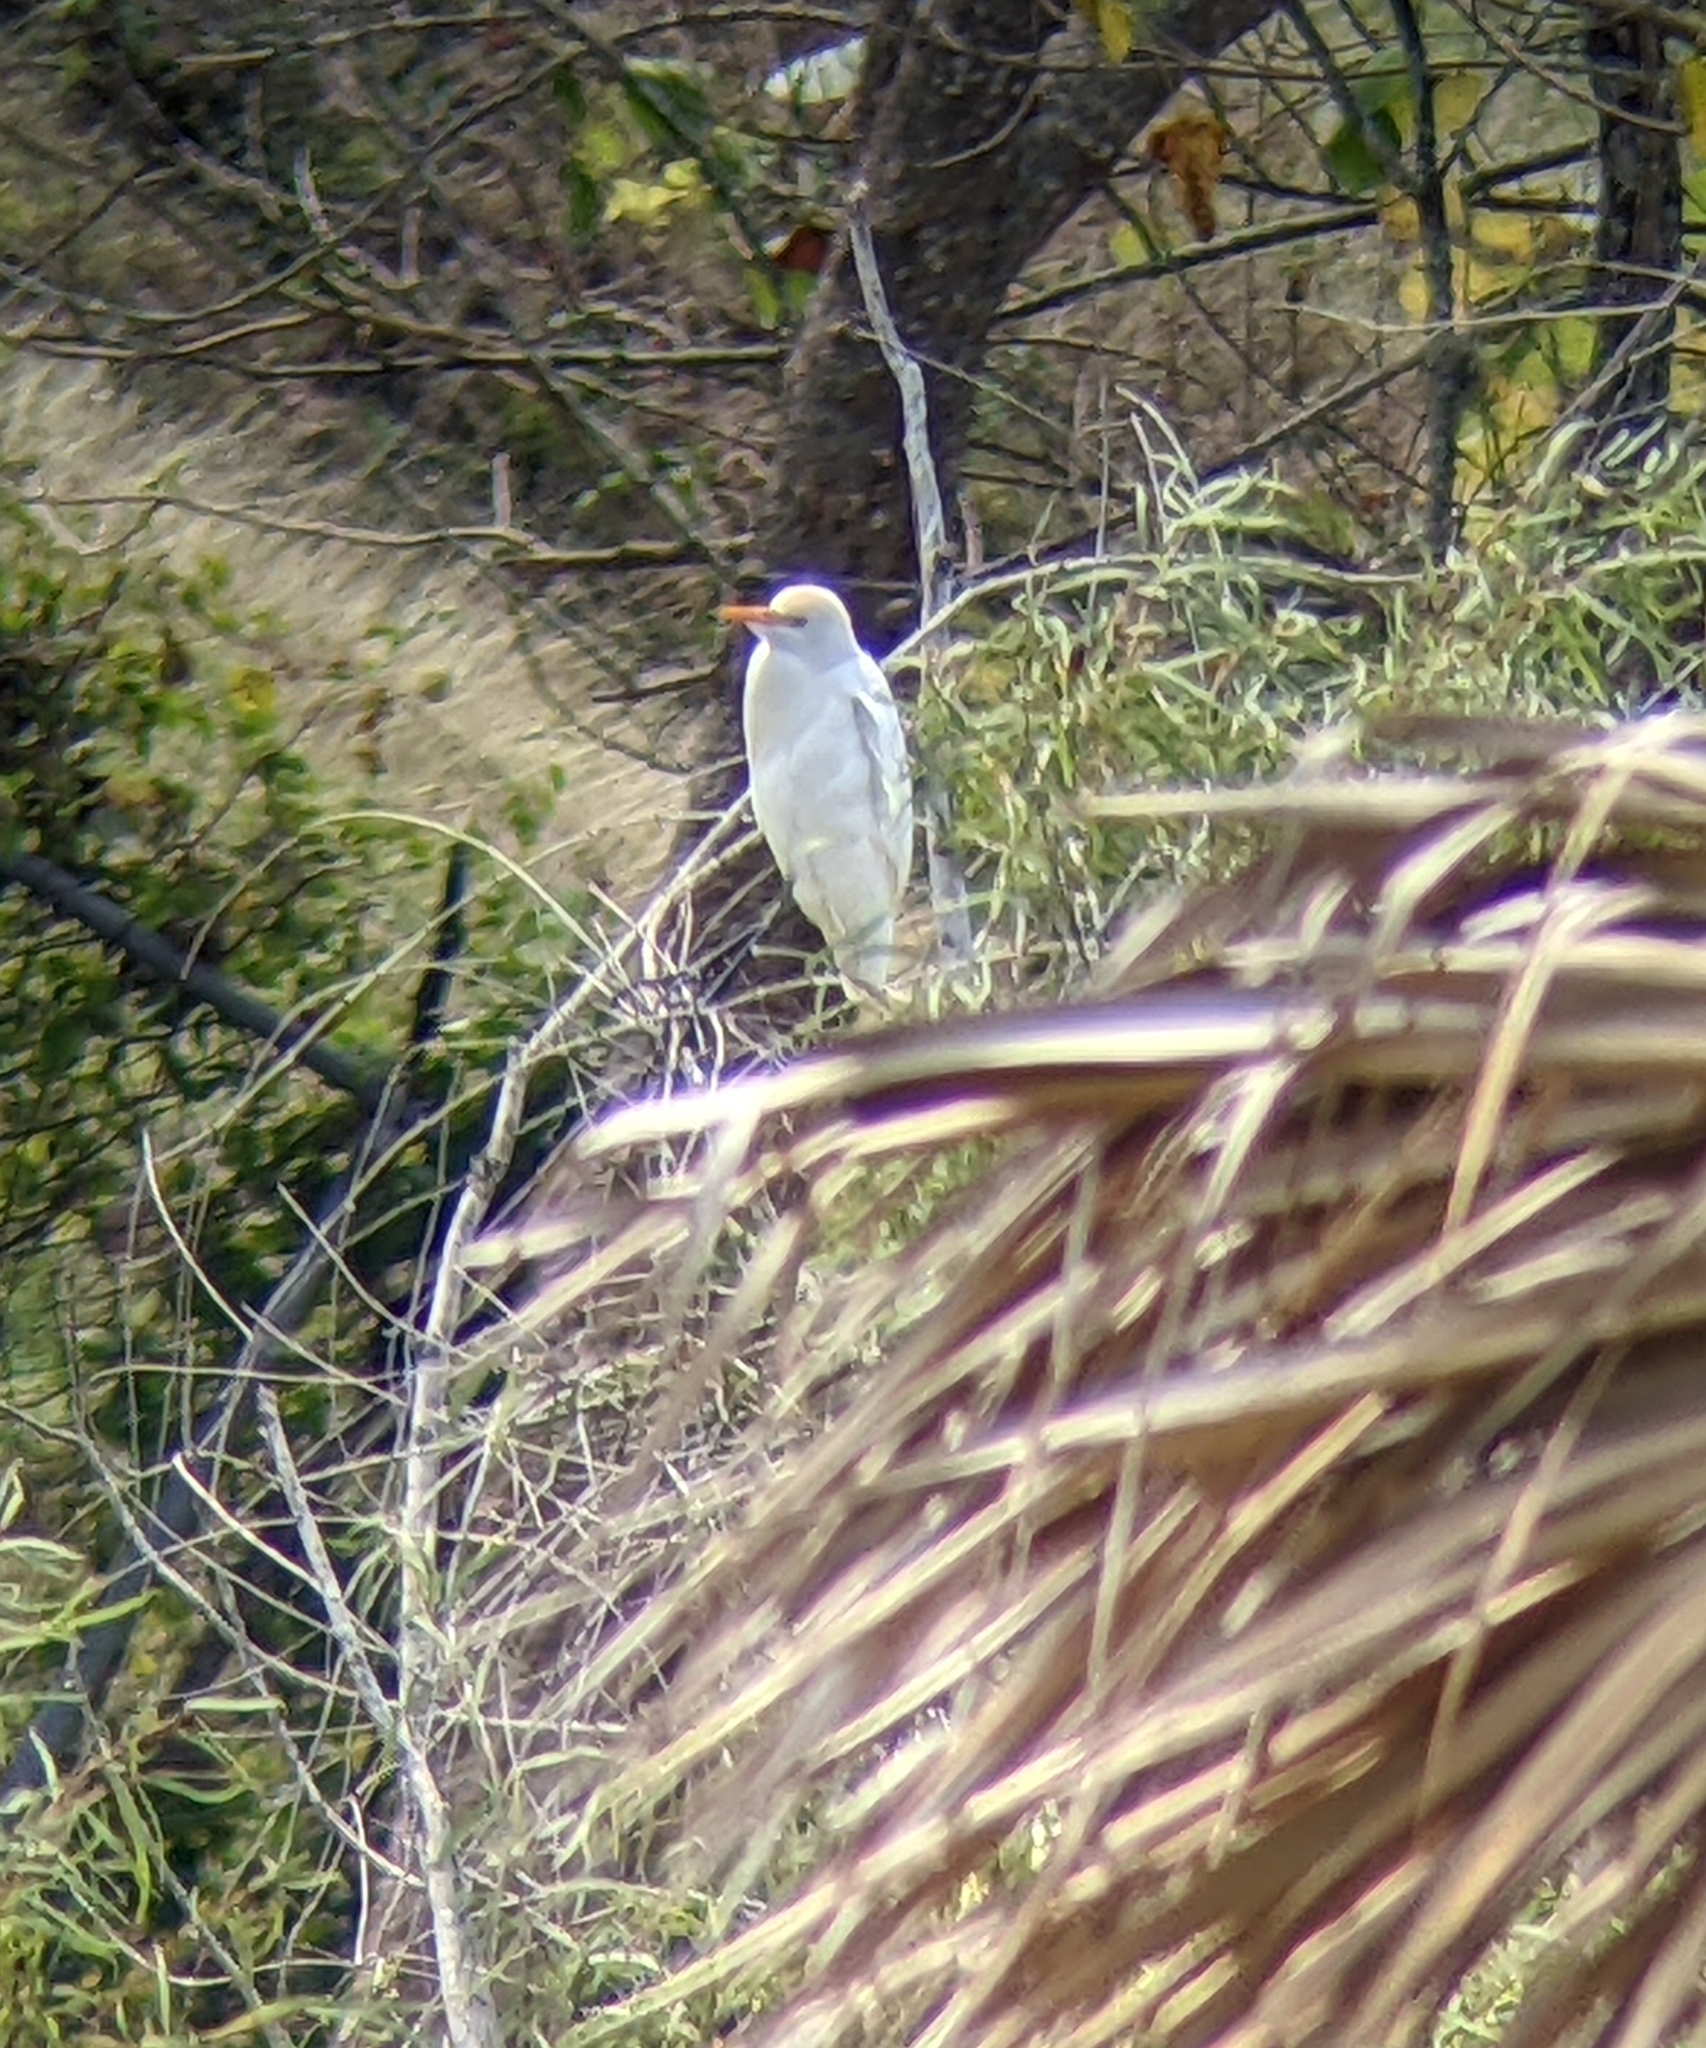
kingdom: Animalia
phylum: Chordata
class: Aves
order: Pelecaniformes
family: Ardeidae
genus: Bubulcus
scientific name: Bubulcus ibis
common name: Cattle egret
